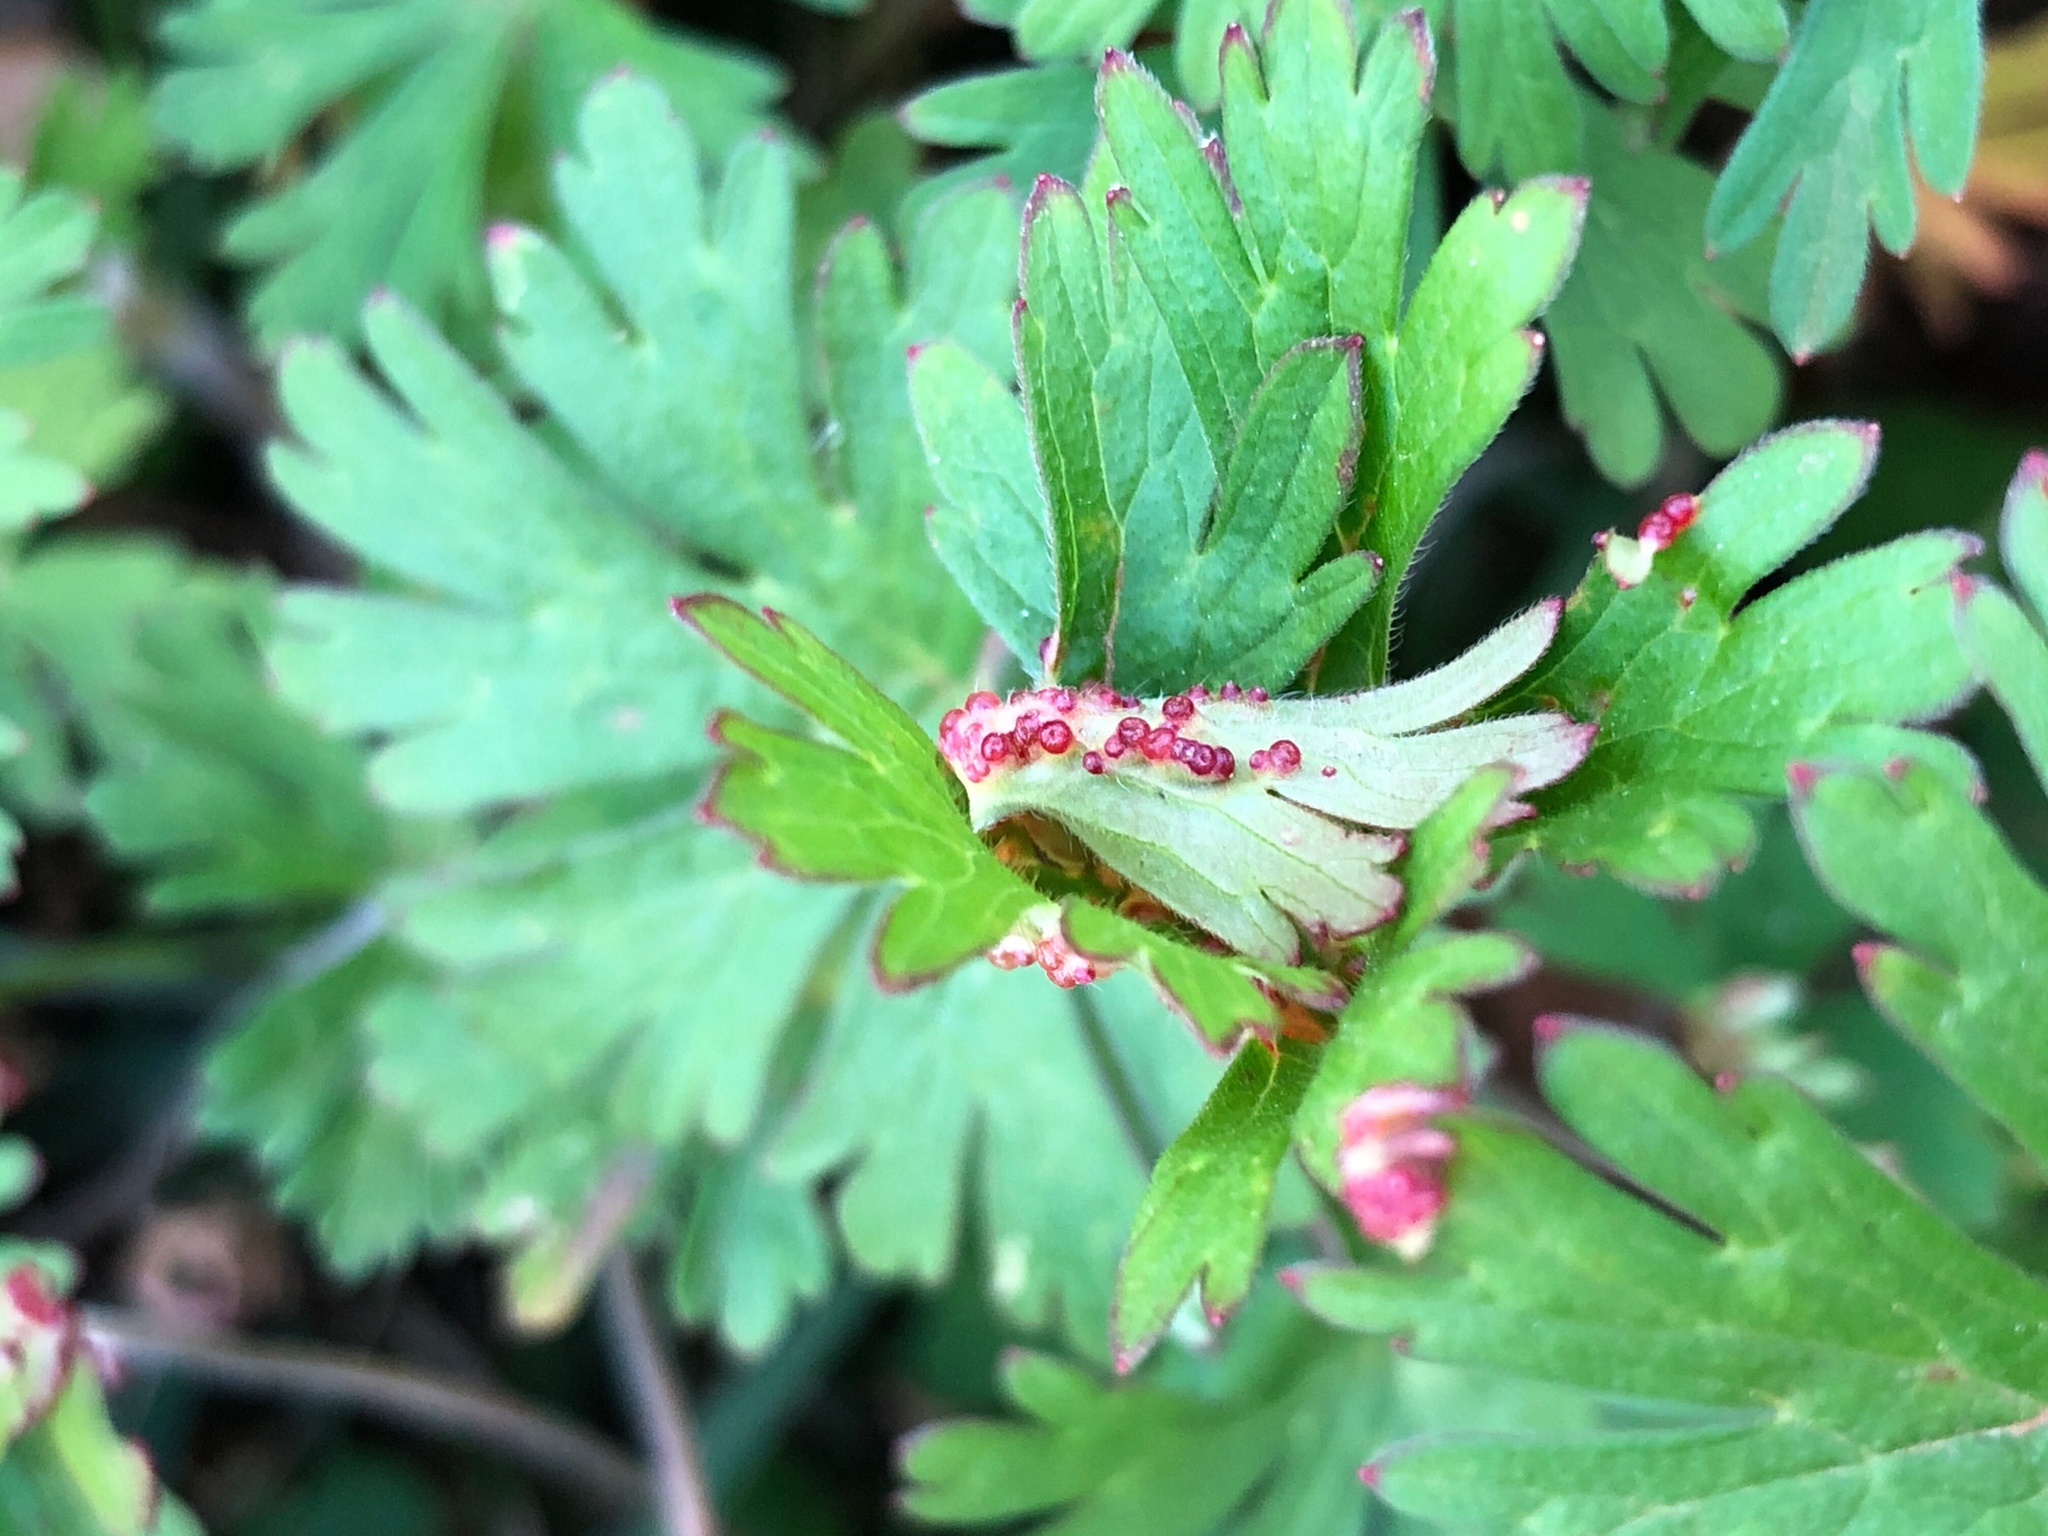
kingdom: Fungi
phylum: Chytridiomycota
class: Chytridiomycetes
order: Chytridiales
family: Synchytriaceae
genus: Synchytrium
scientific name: Synchytrium geranii
